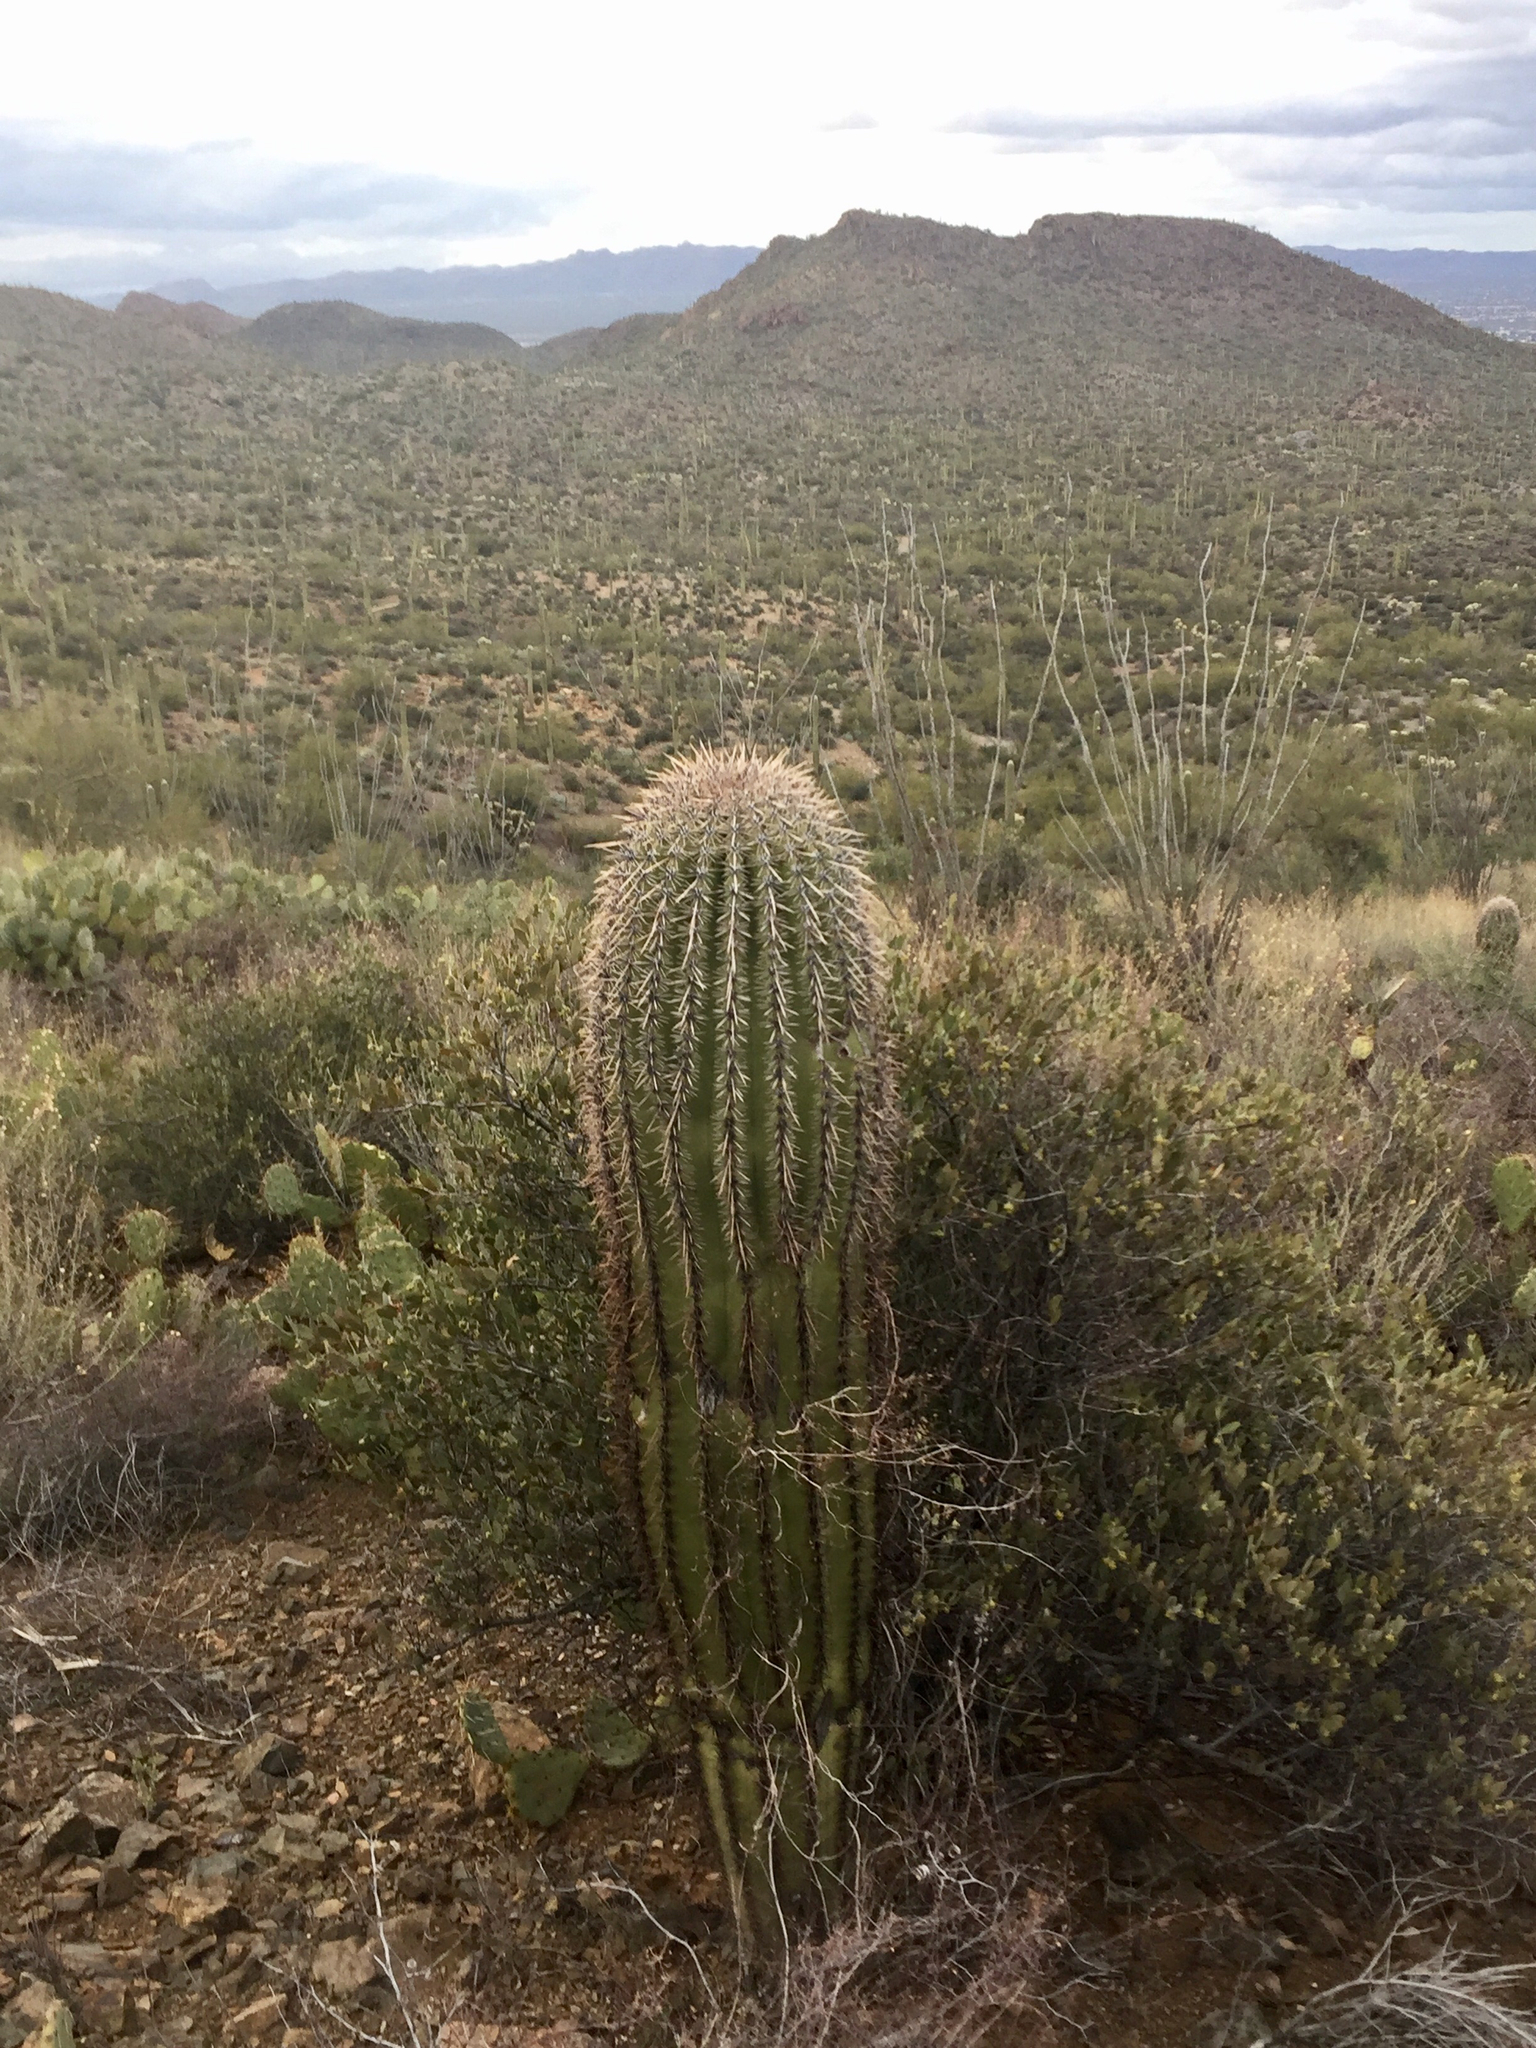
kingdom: Plantae
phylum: Tracheophyta
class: Magnoliopsida
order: Caryophyllales
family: Cactaceae
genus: Carnegiea
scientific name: Carnegiea gigantea
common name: Saguaro
